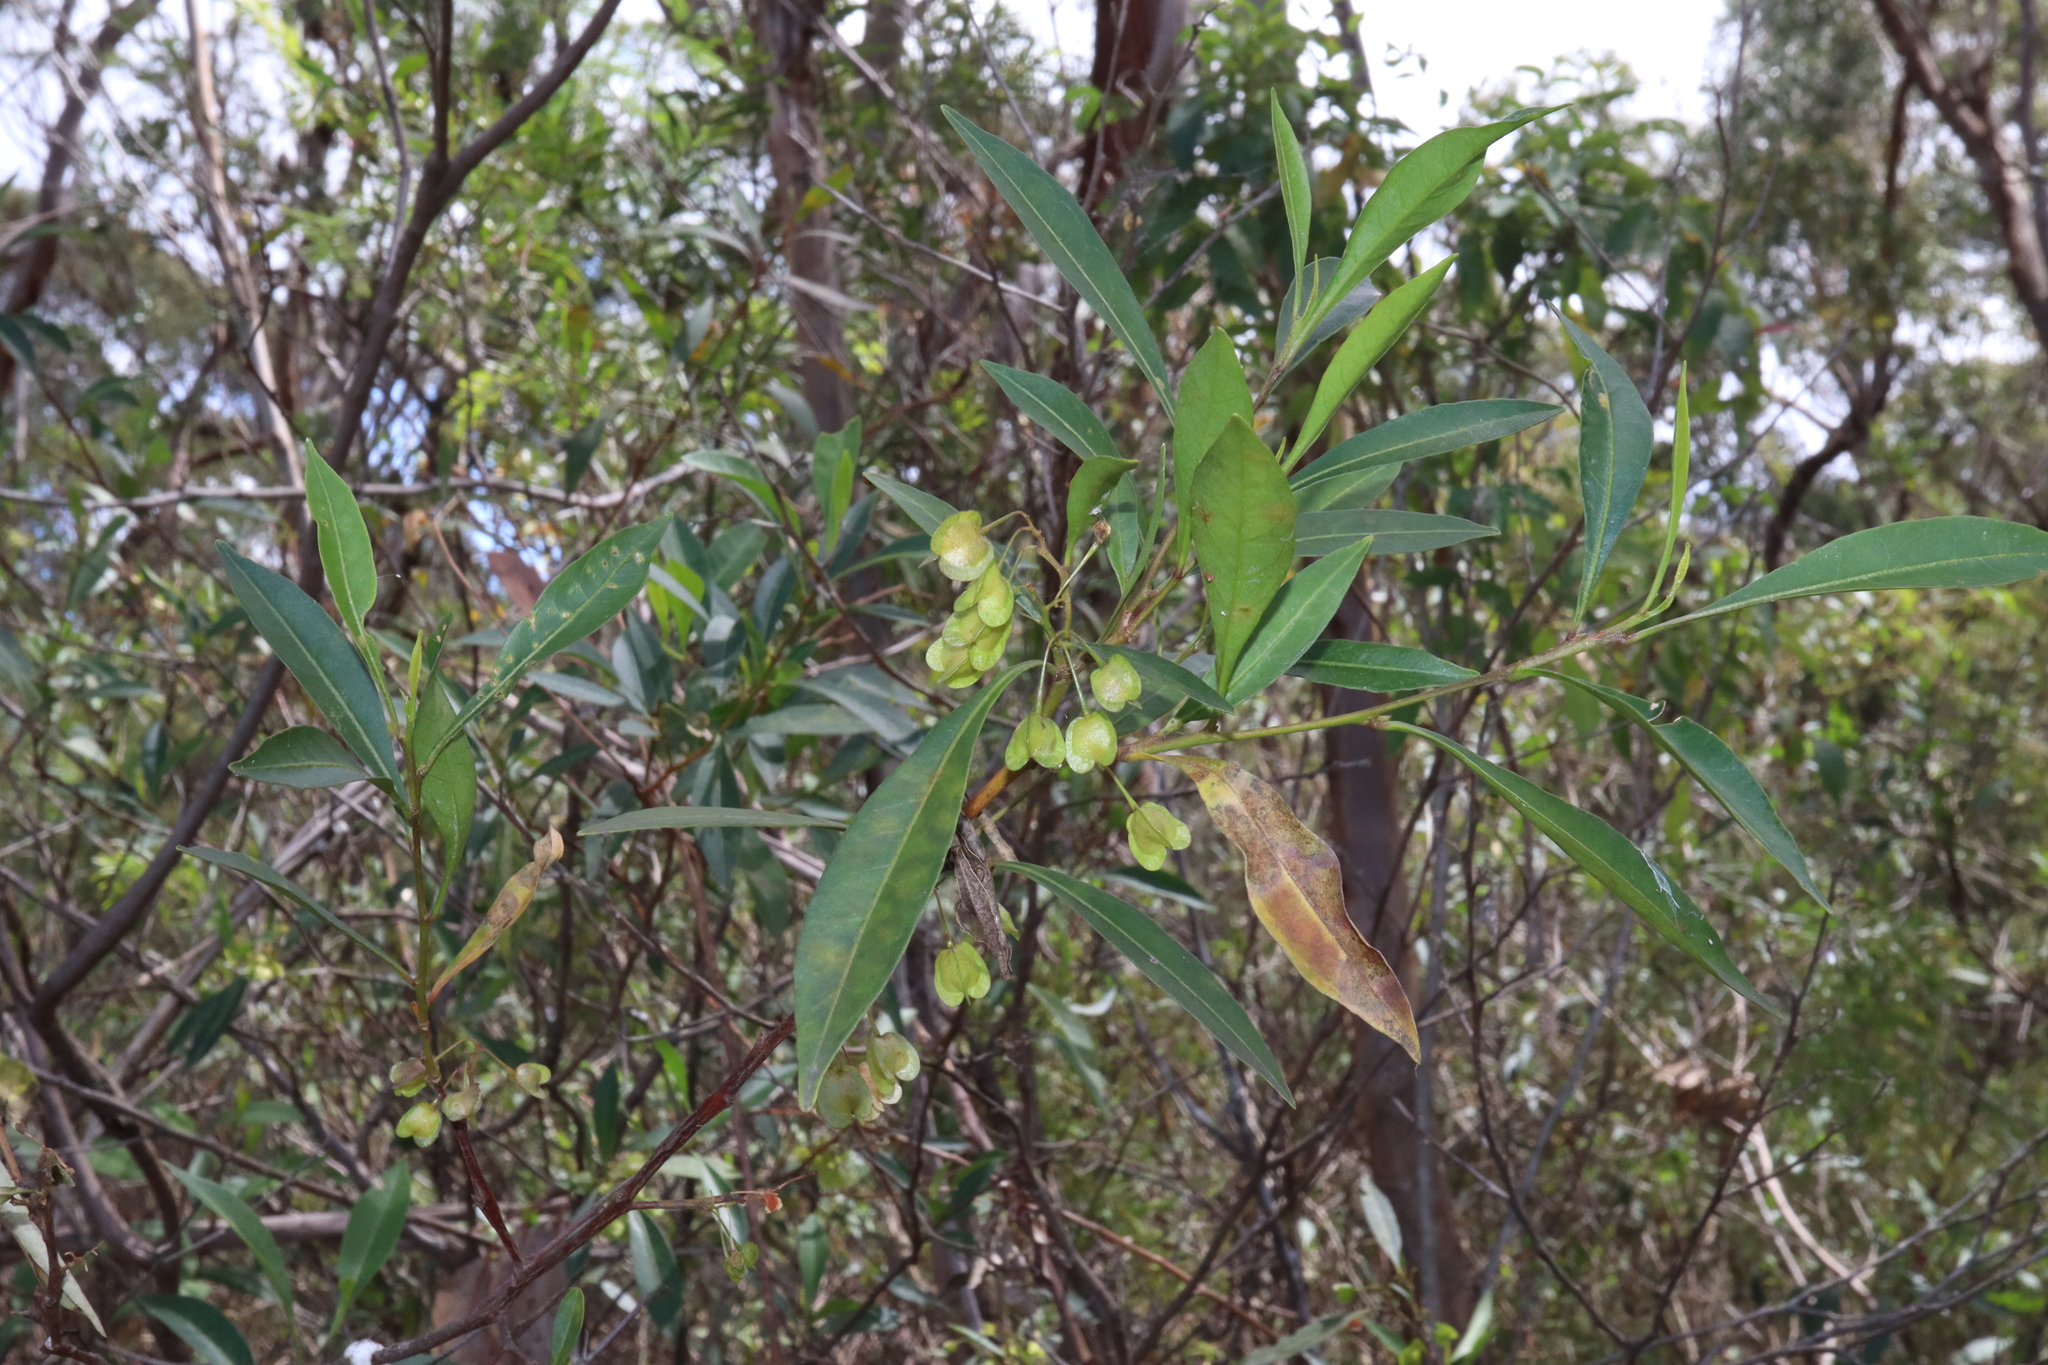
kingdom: Plantae
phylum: Tracheophyta
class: Magnoliopsida
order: Sapindales
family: Sapindaceae
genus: Dodonaea
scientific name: Dodonaea triquetra
